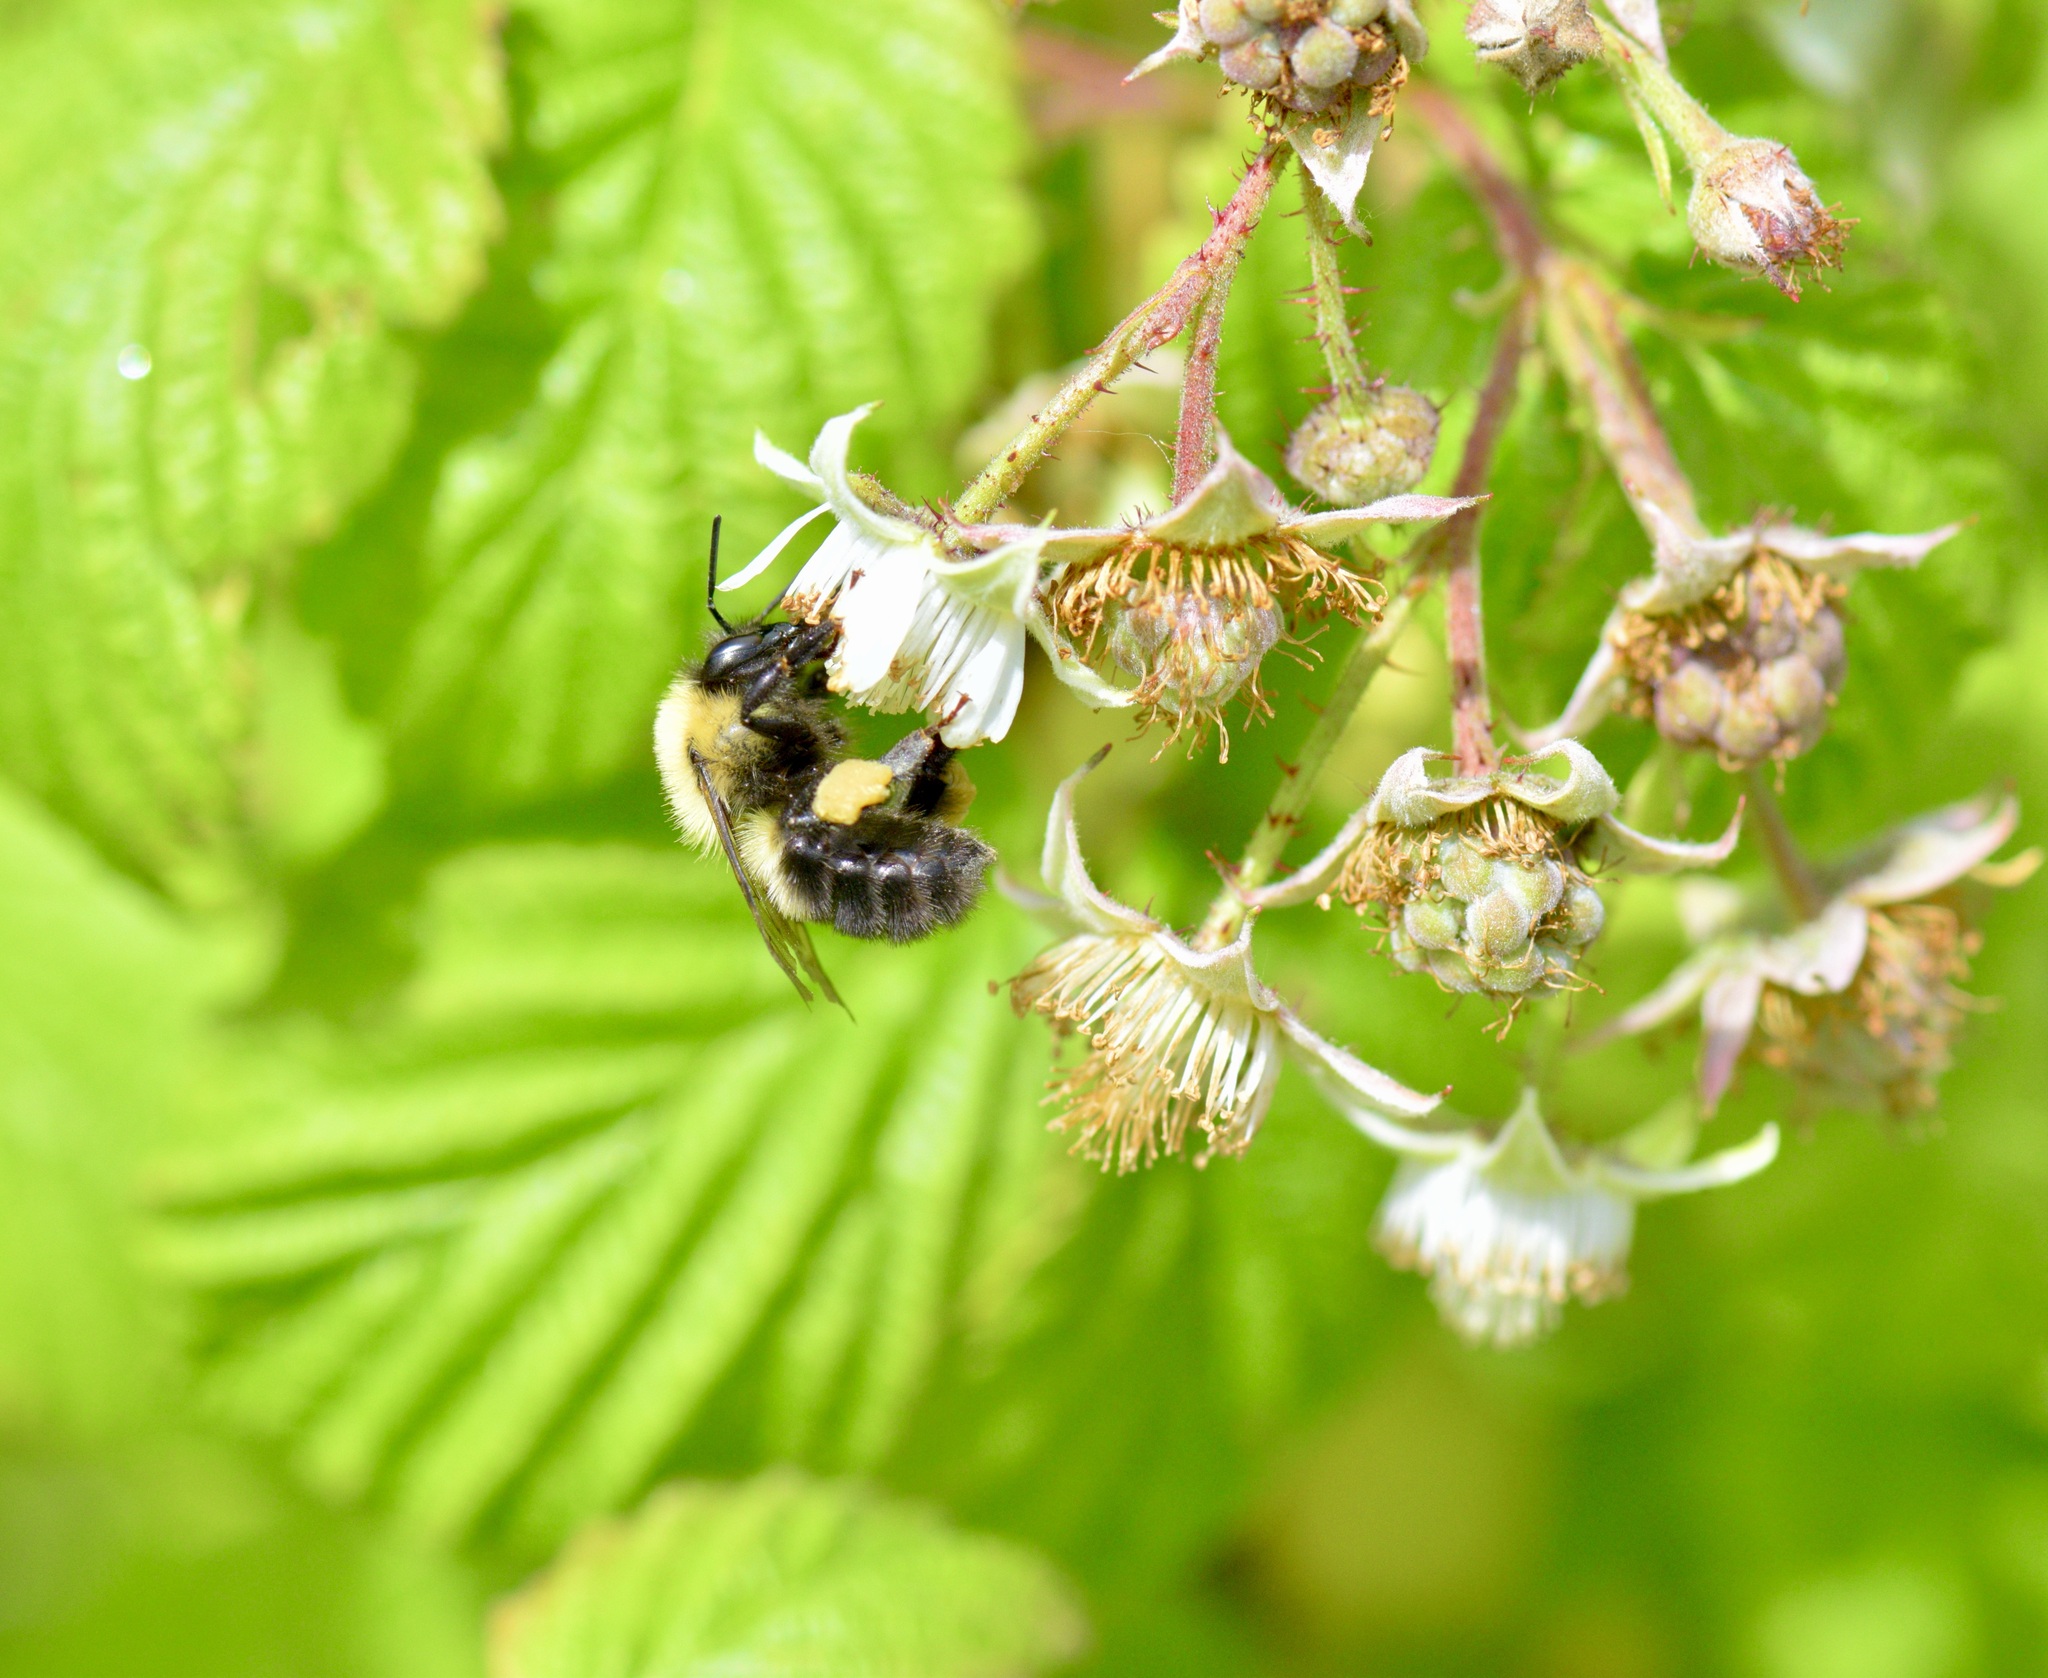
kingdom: Animalia
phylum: Arthropoda
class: Insecta
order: Hymenoptera
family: Apidae
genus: Bombus
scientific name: Bombus impatiens
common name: Common eastern bumble bee
